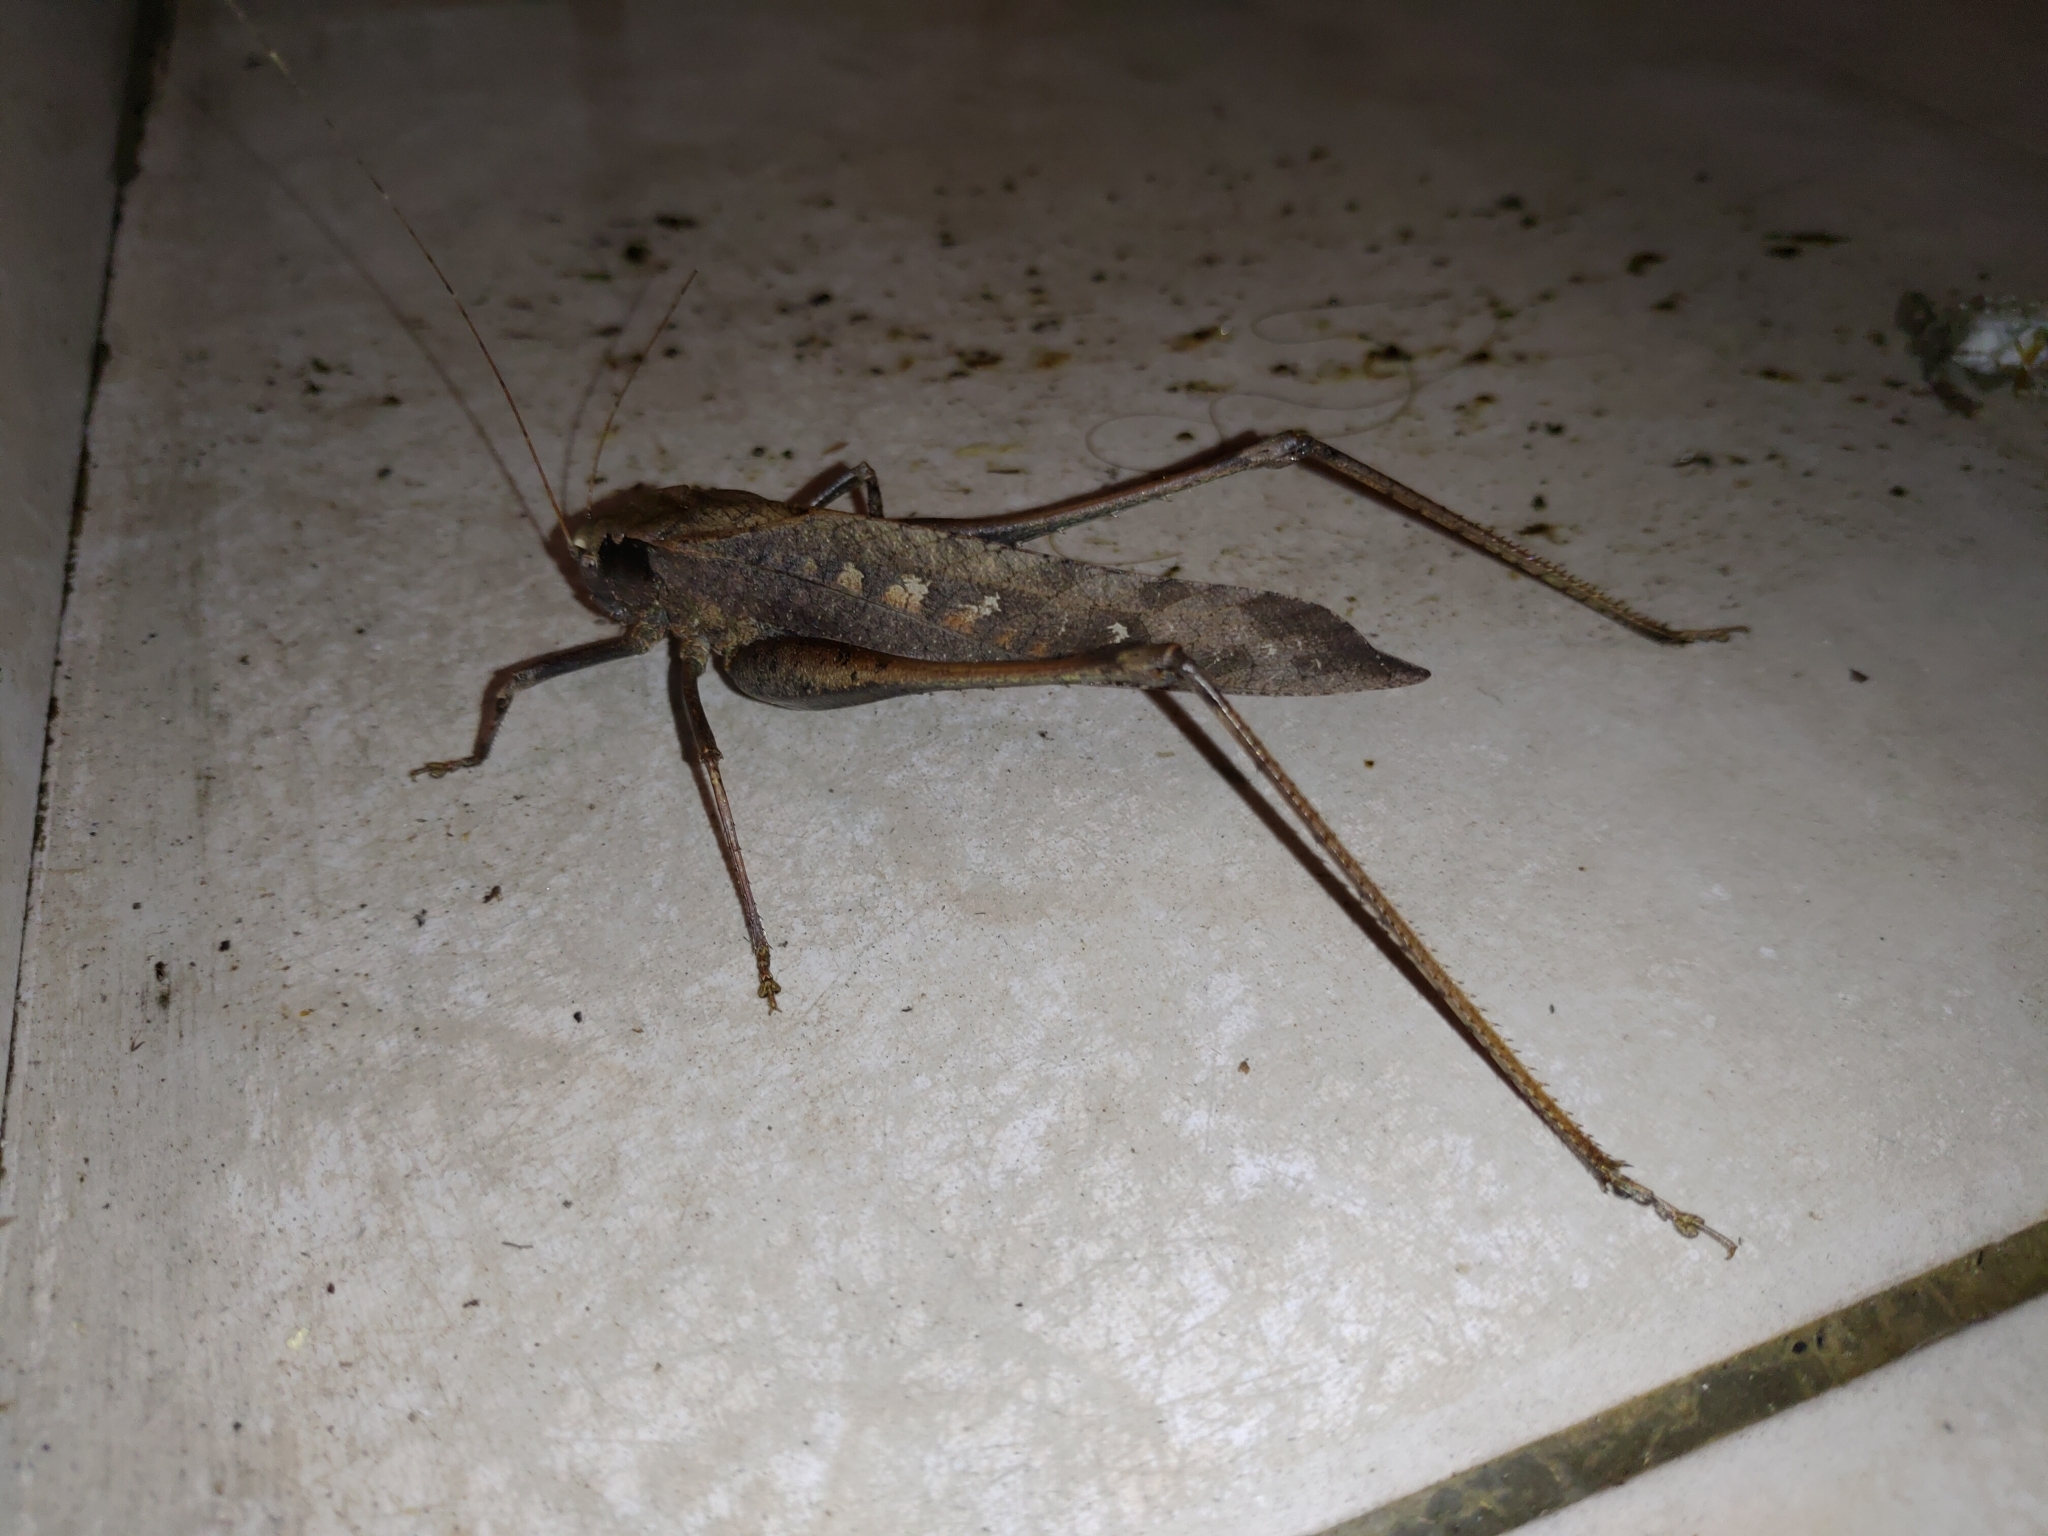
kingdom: Animalia
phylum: Arthropoda
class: Insecta
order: Orthoptera
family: Tettigoniidae
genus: Mecopoda
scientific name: Mecopoda elongata
